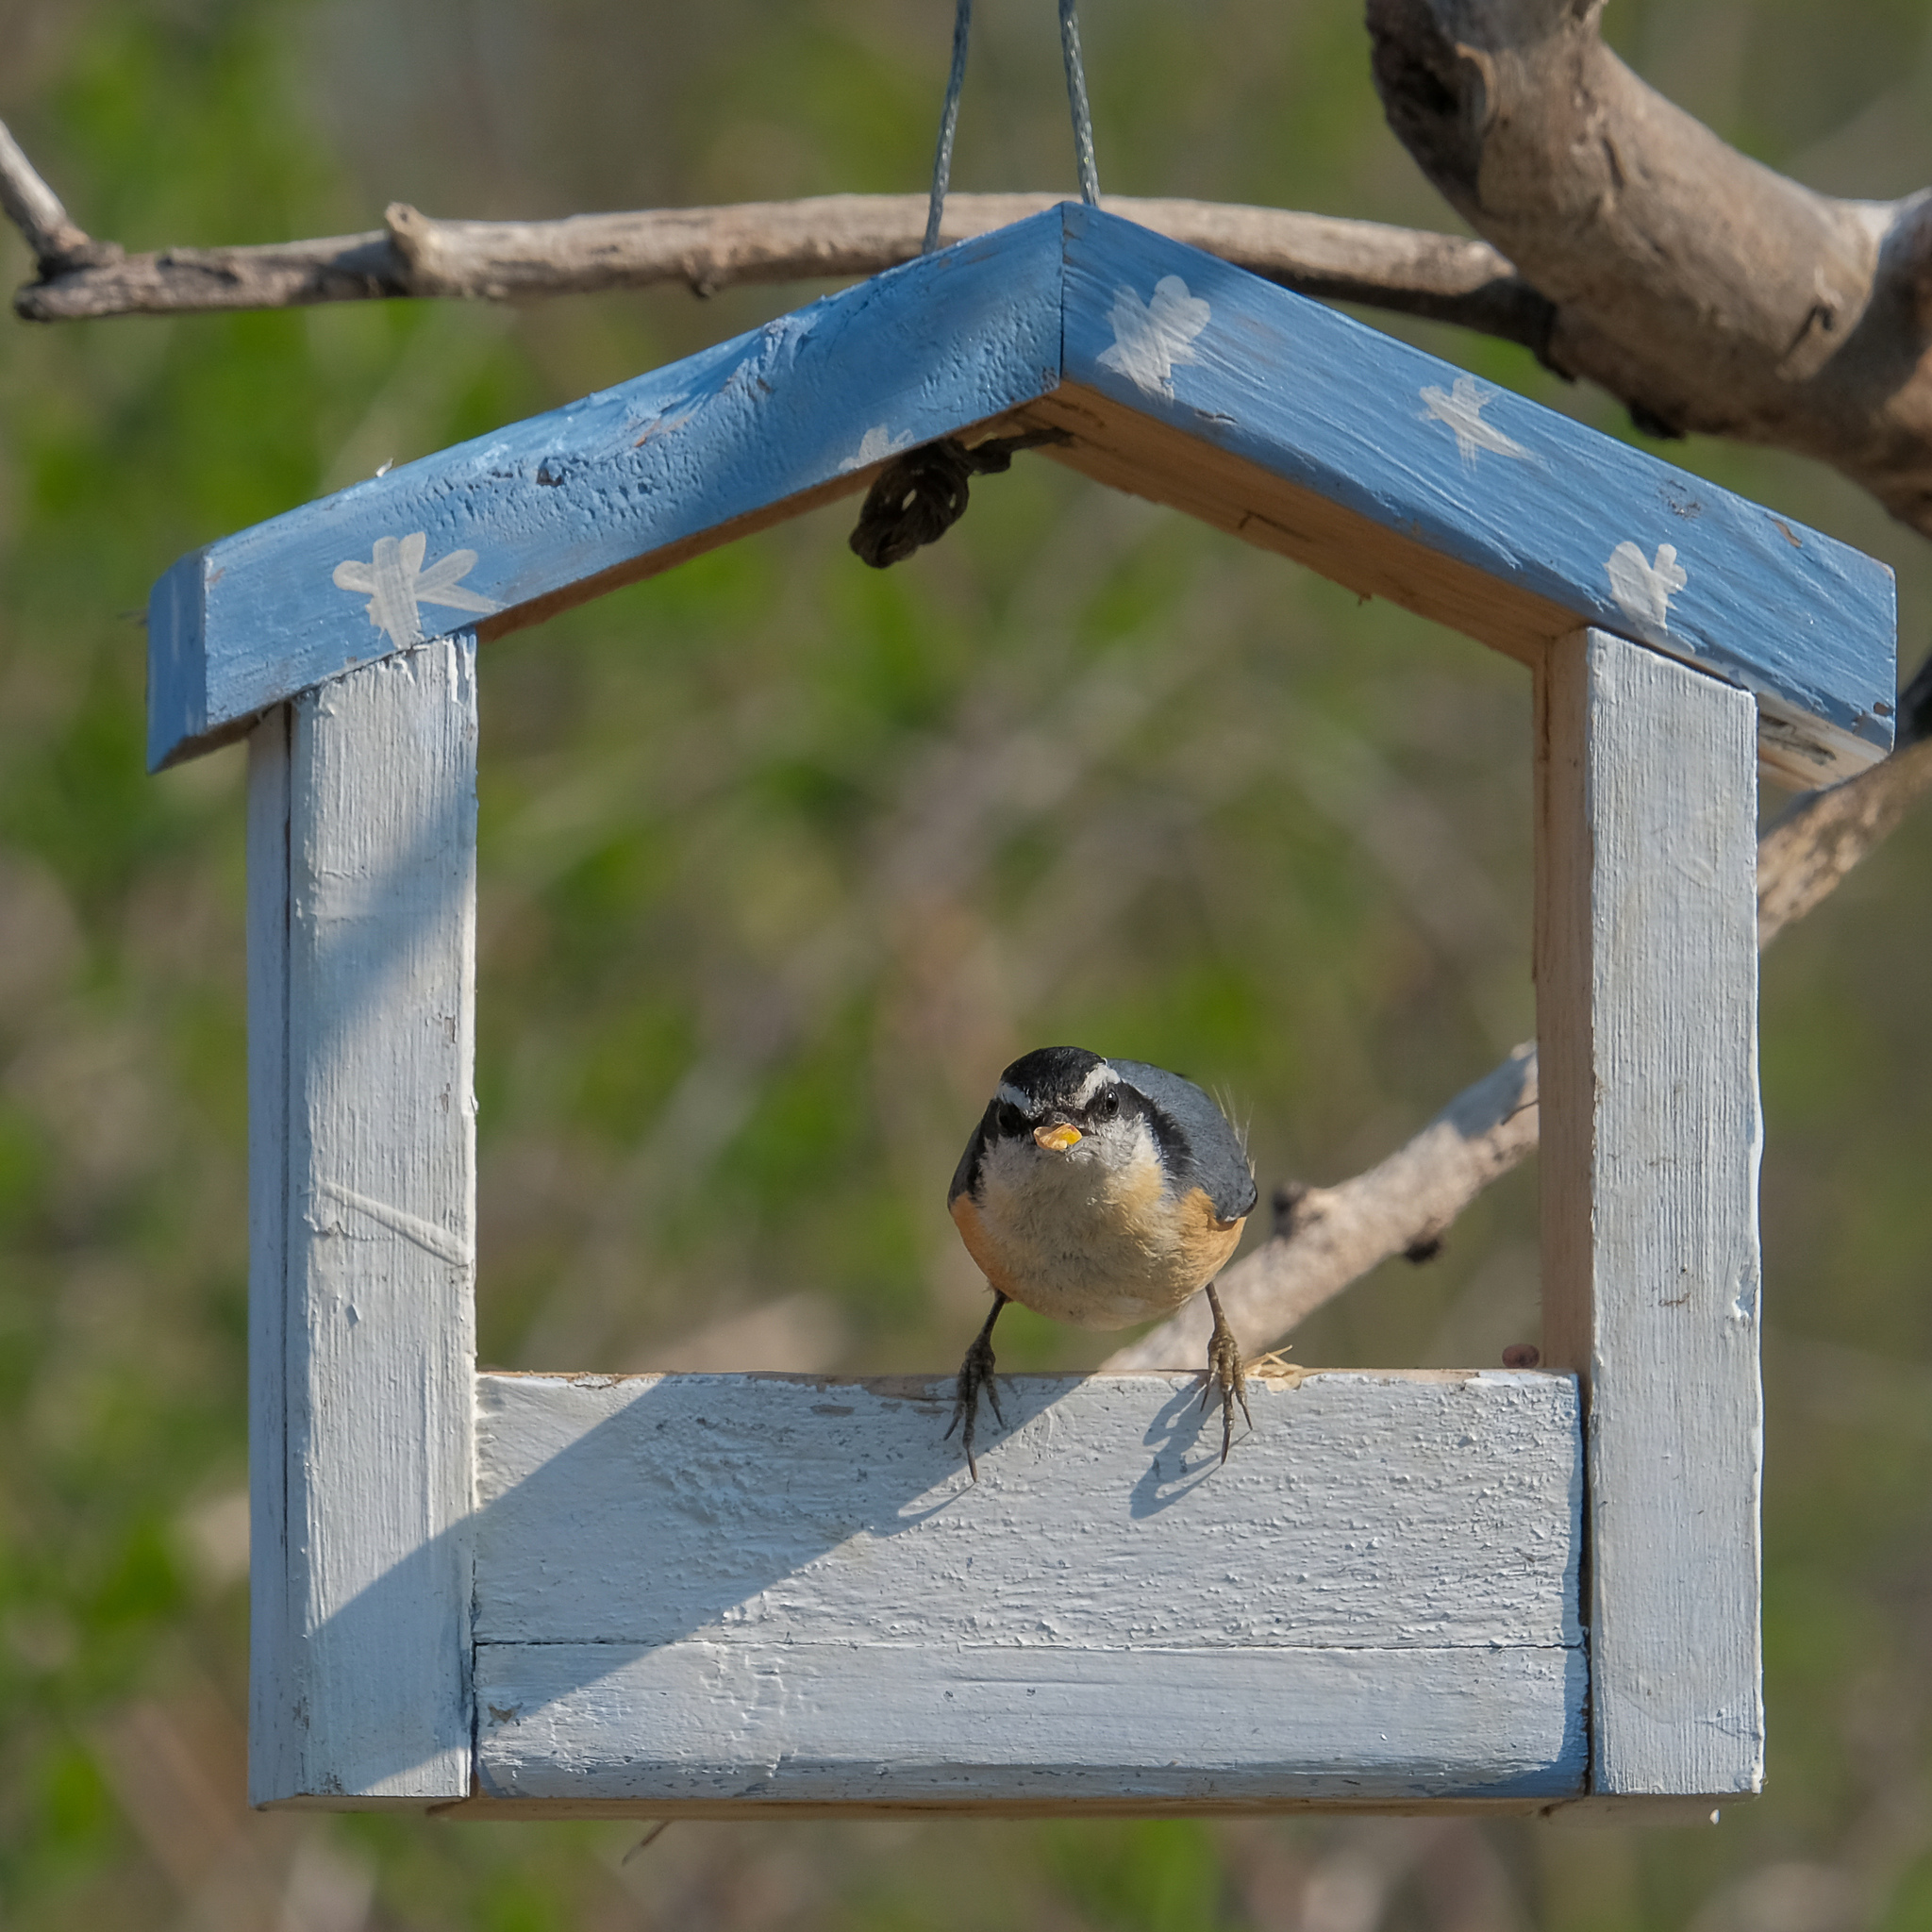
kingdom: Animalia
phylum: Chordata
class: Aves
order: Passeriformes
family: Sittidae
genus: Sitta
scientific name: Sitta canadensis
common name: Red-breasted nuthatch
